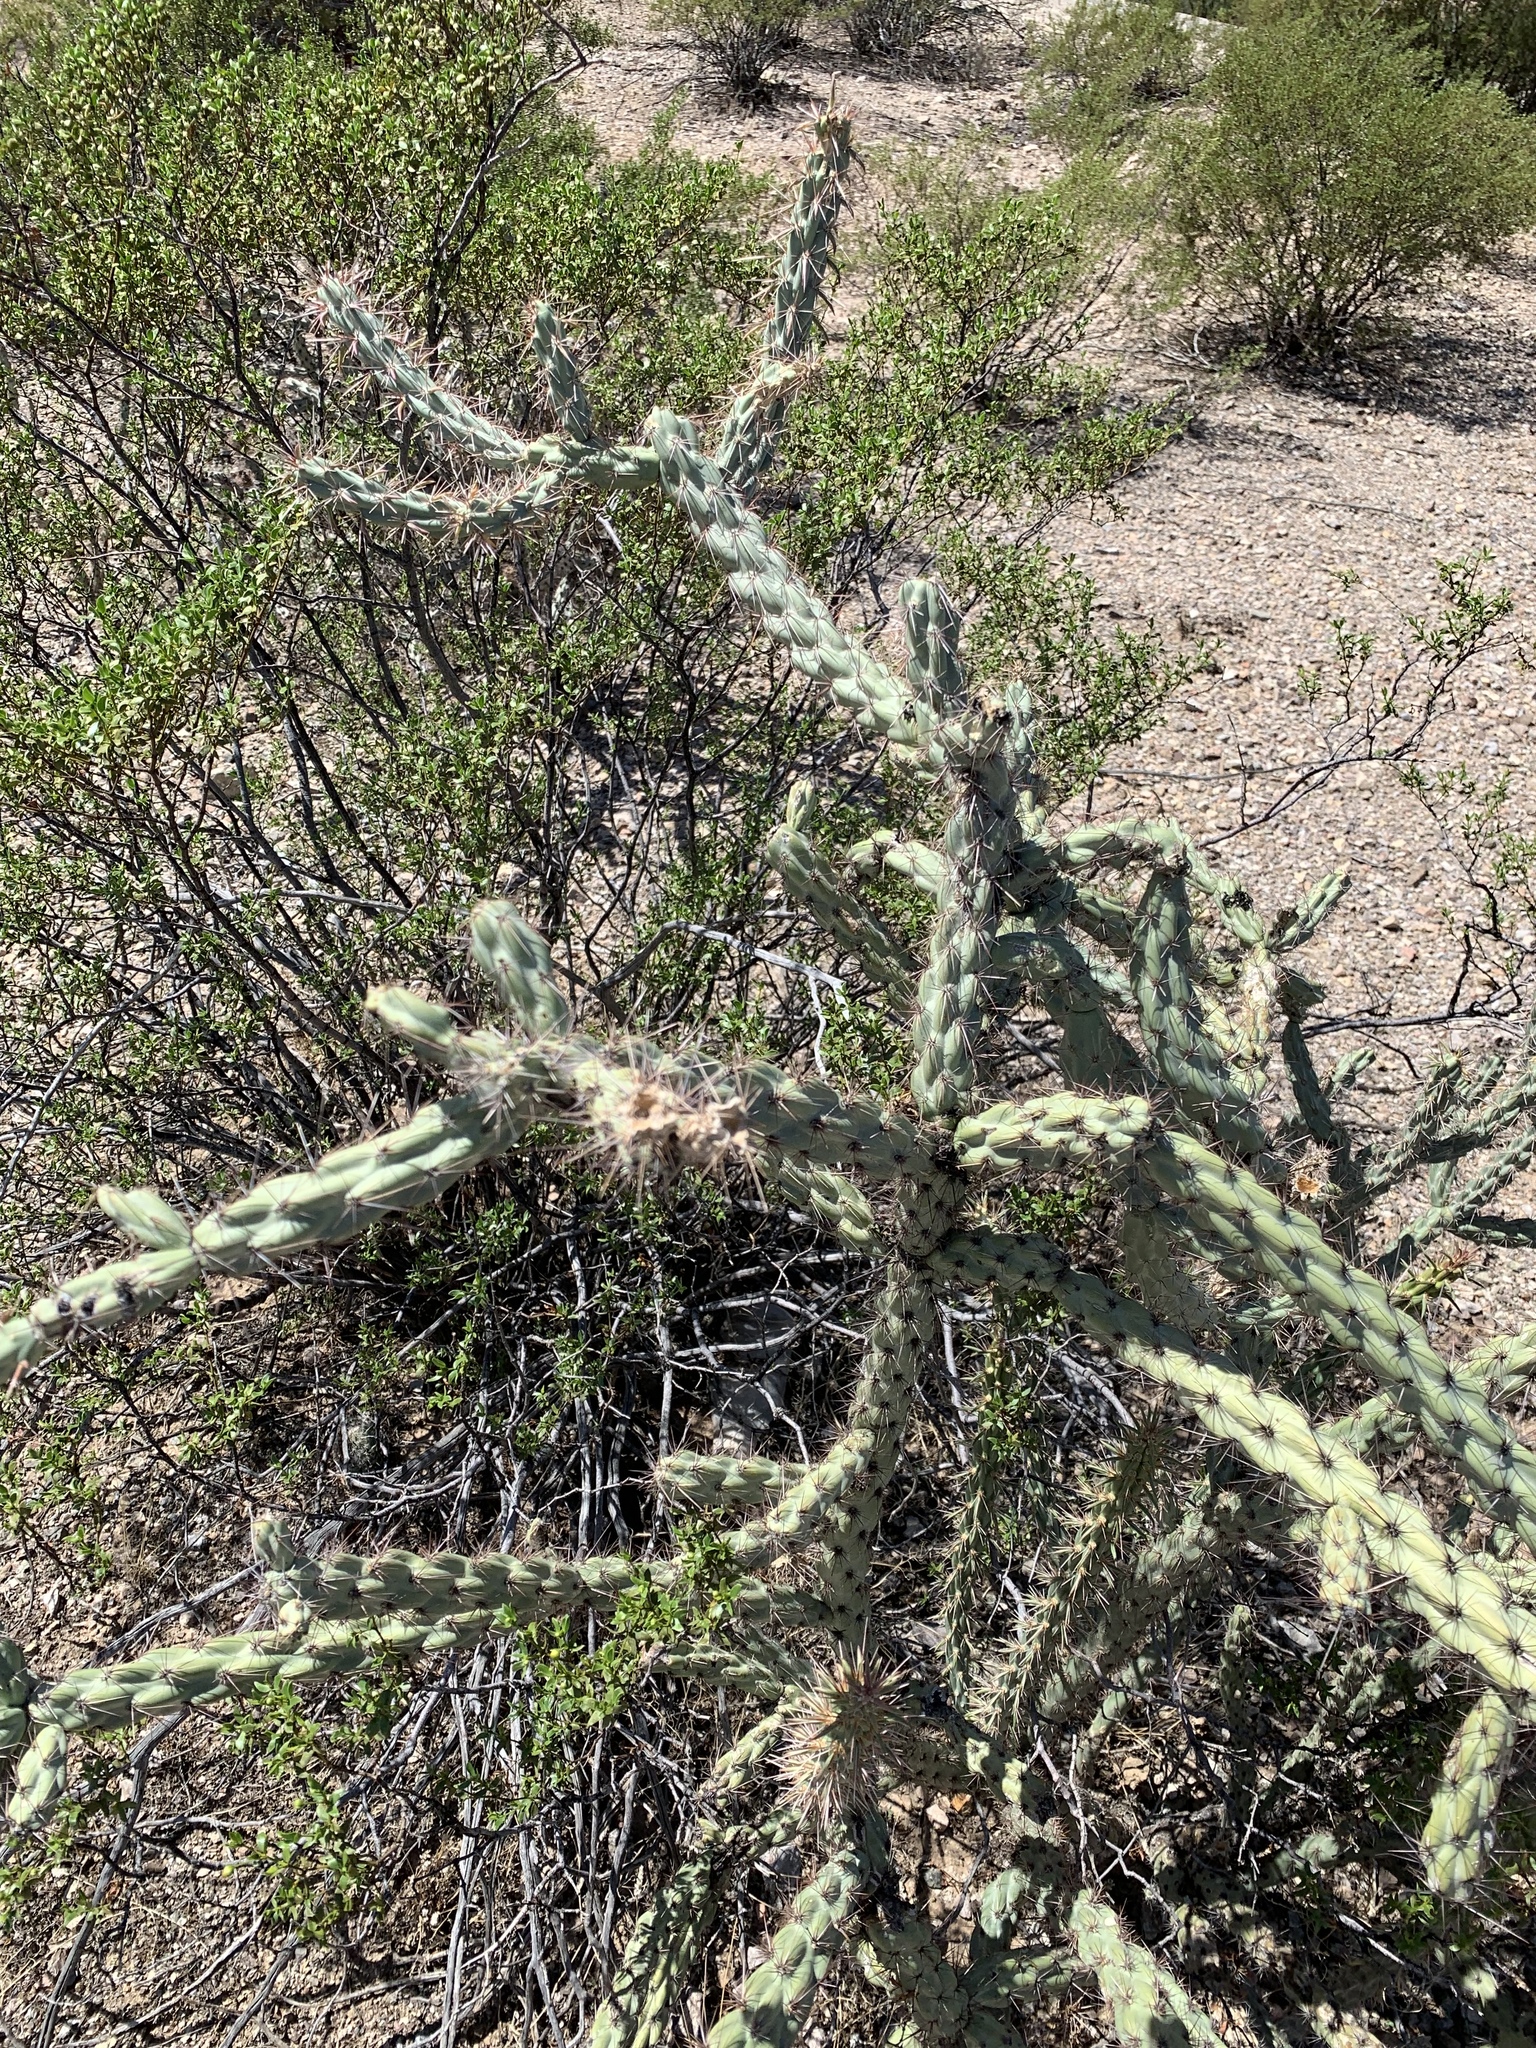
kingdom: Plantae
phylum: Tracheophyta
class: Magnoliopsida
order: Caryophyllales
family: Cactaceae
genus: Cylindropuntia
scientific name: Cylindropuntia acanthocarpa
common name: Buckhorn cholla
